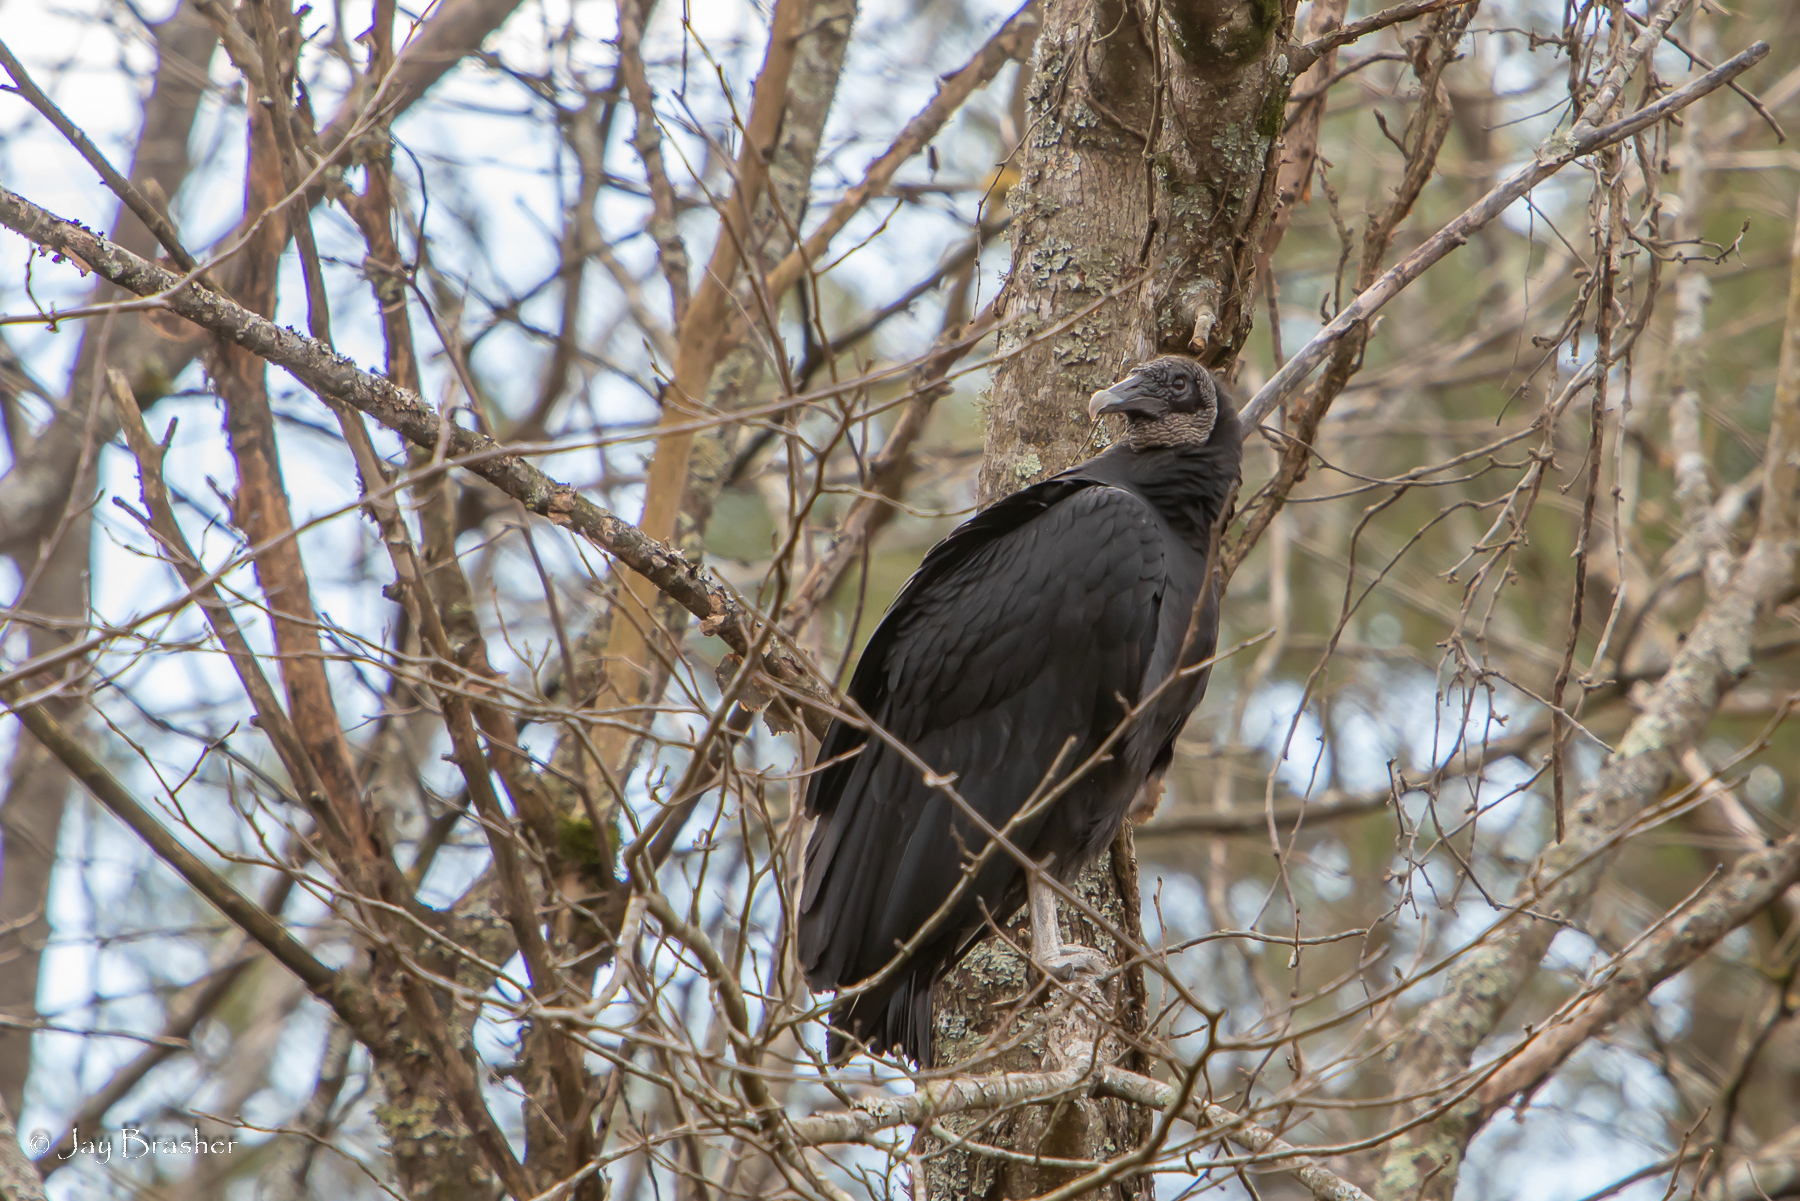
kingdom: Animalia
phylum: Chordata
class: Aves
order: Accipitriformes
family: Cathartidae
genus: Coragyps
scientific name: Coragyps atratus
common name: Black vulture
